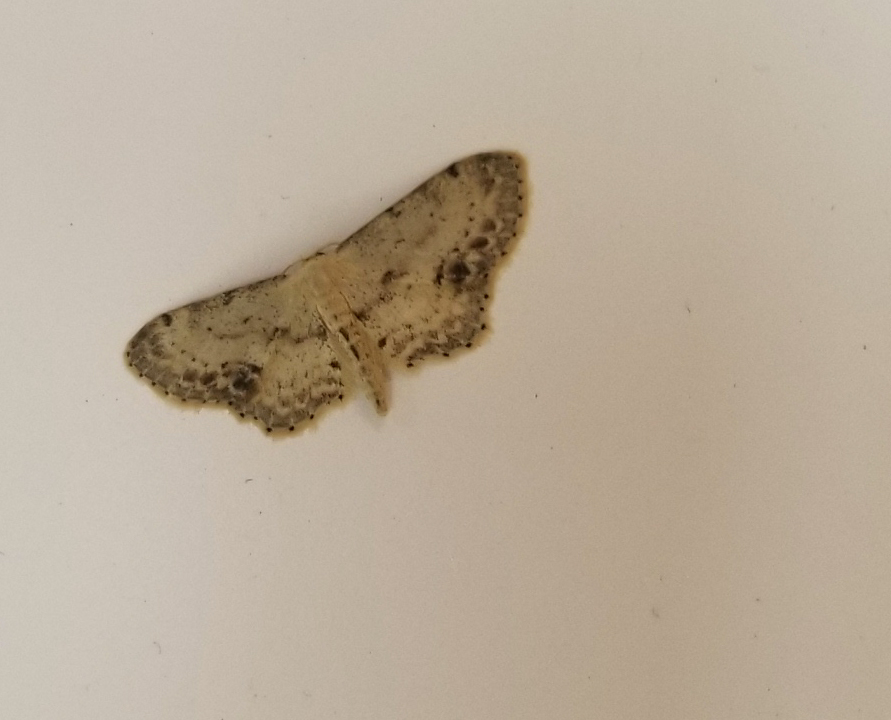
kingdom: Animalia
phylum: Arthropoda
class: Insecta
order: Lepidoptera
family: Geometridae
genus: Idaea
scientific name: Idaea dimidiata
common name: Single-dotted wave
